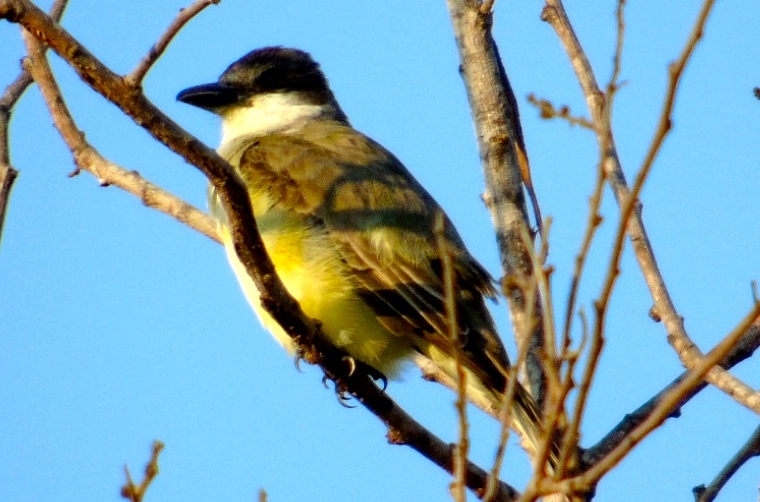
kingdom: Animalia
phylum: Chordata
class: Aves
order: Passeriformes
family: Tyrannidae
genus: Tyrannus
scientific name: Tyrannus crassirostris
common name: Thick-billed kingbird
